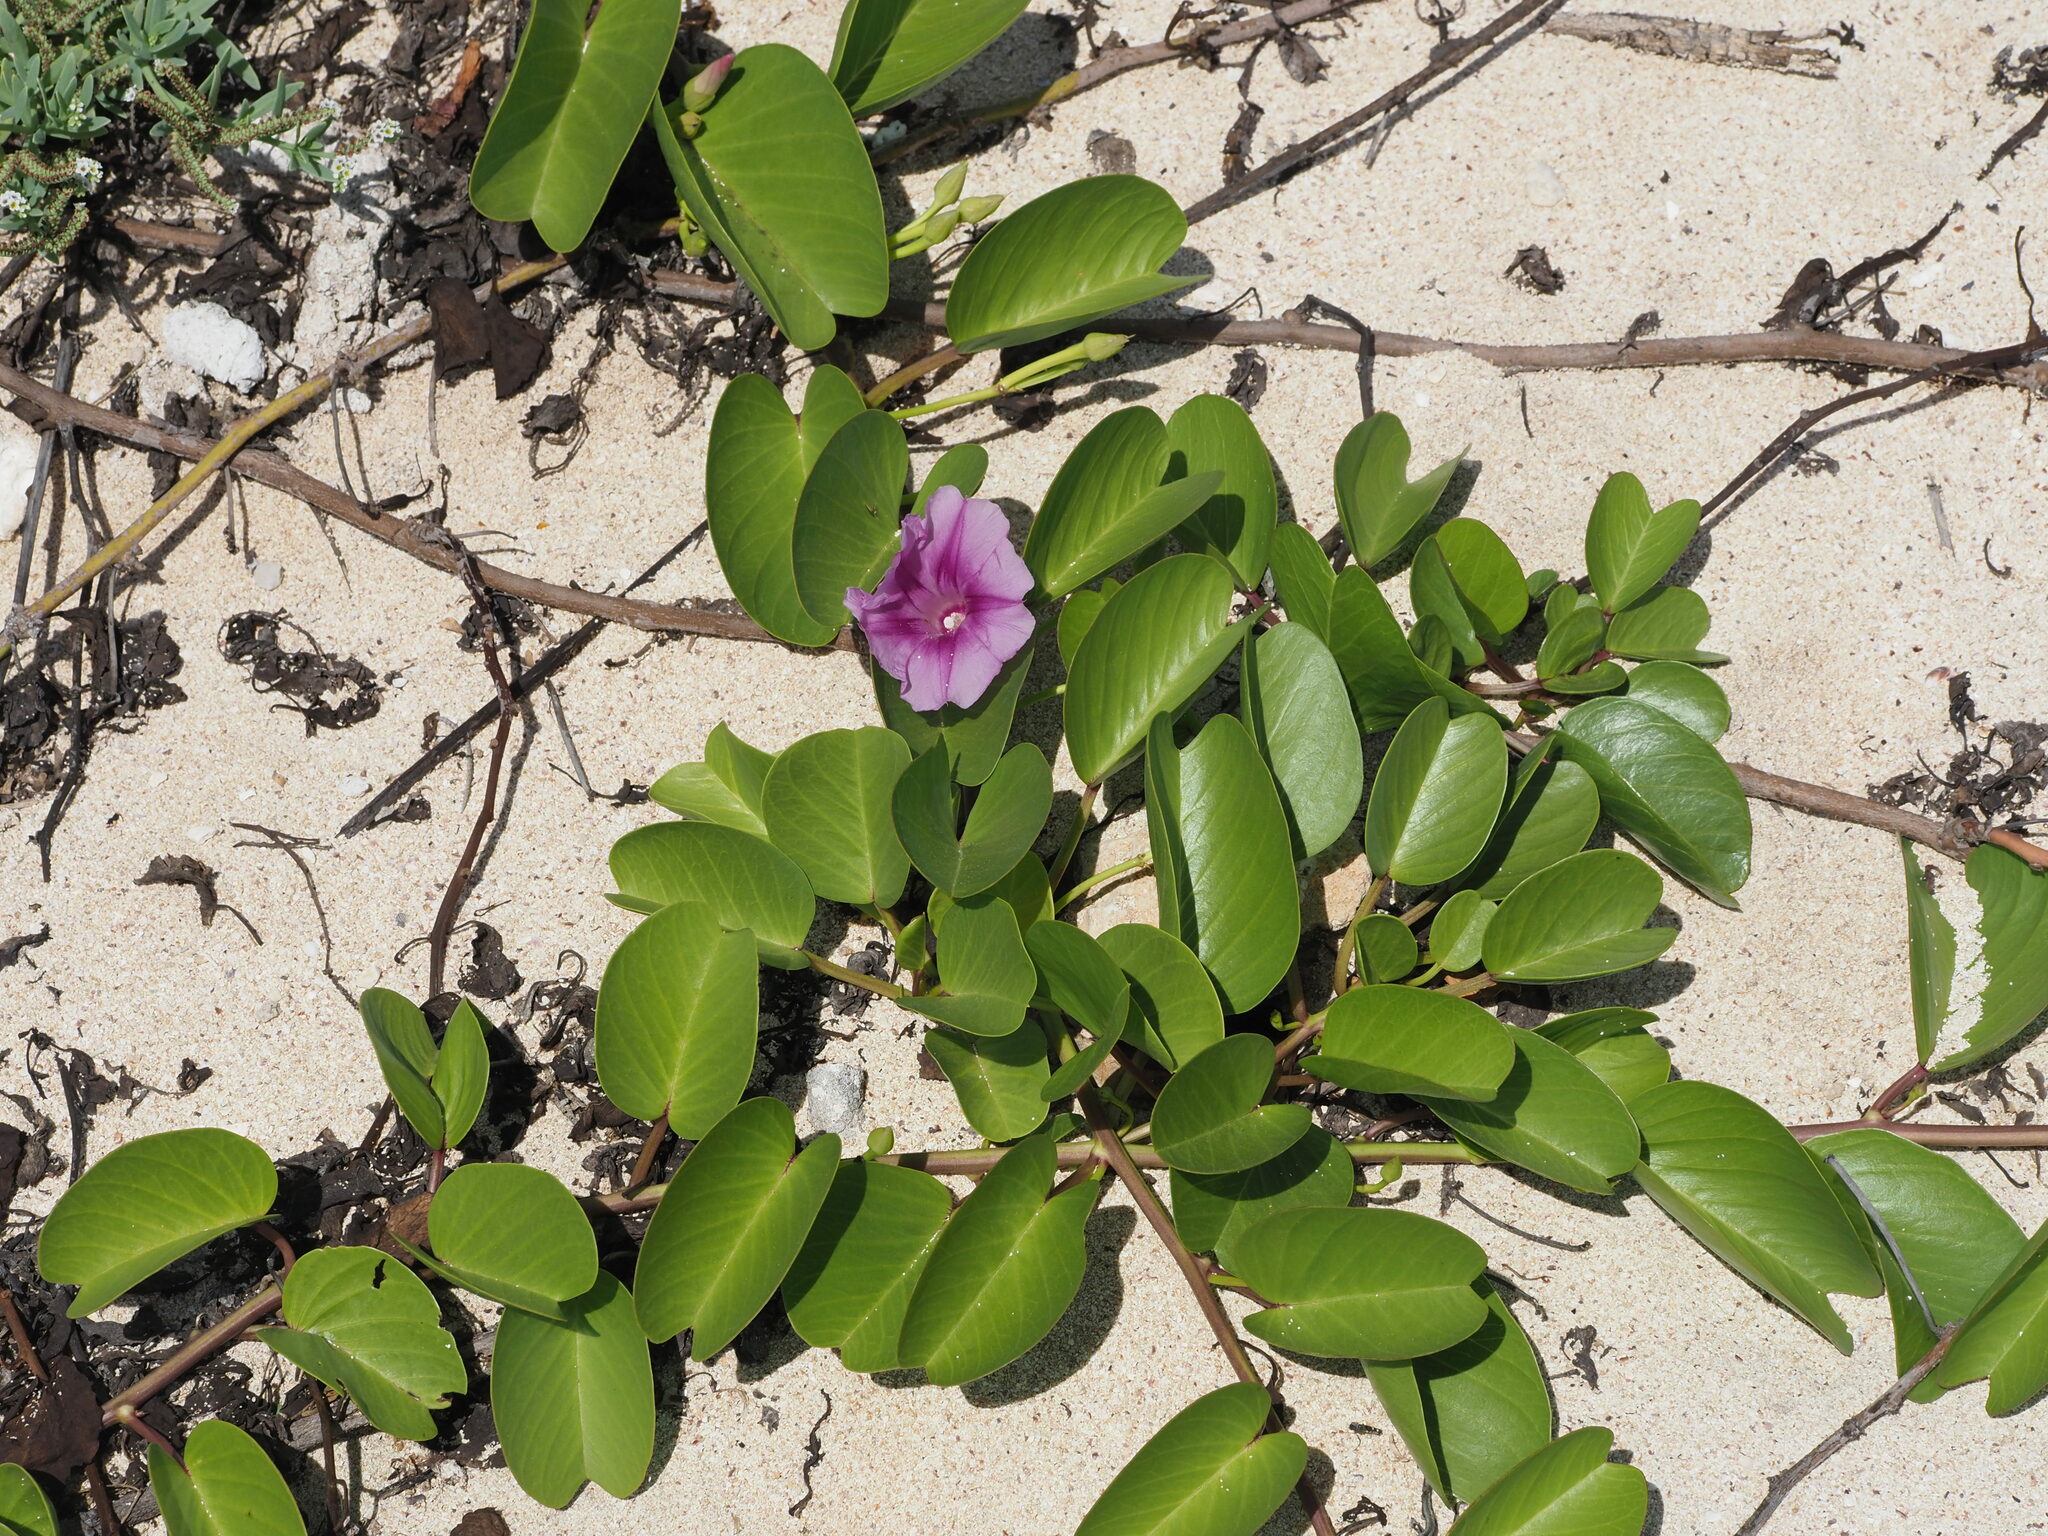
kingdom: Plantae
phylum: Tracheophyta
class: Magnoliopsida
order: Solanales
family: Convolvulaceae
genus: Ipomoea
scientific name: Ipomoea pes-caprae
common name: Beach morning glory
